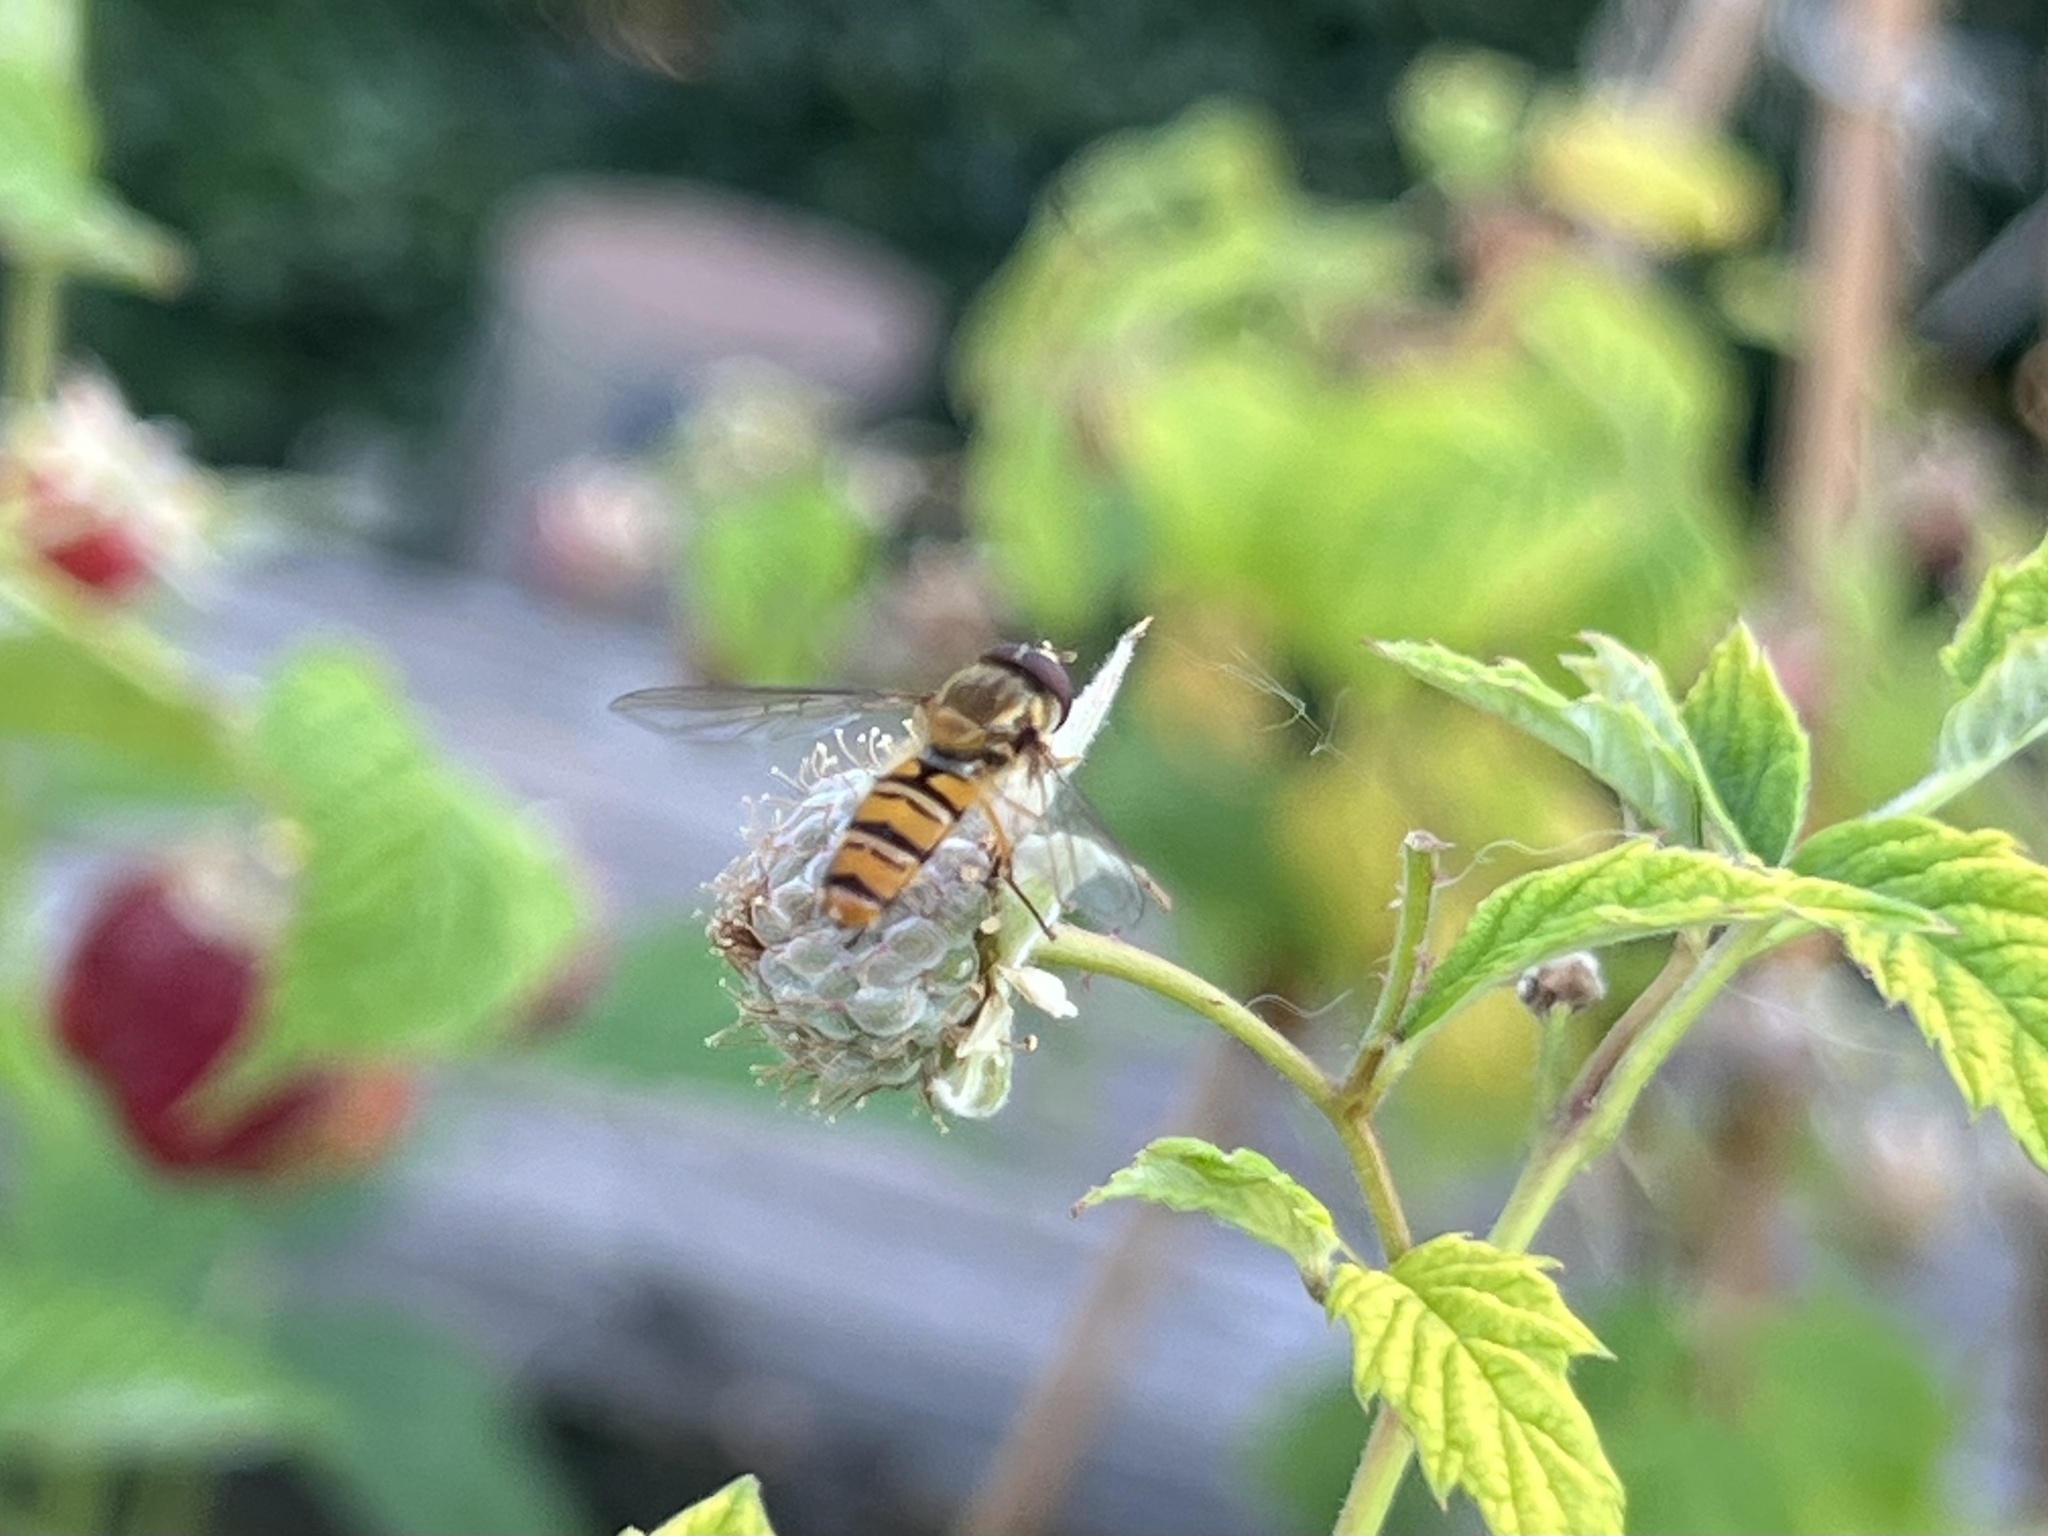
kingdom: Animalia
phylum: Arthropoda
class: Insecta
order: Diptera
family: Syrphidae
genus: Episyrphus
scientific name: Episyrphus balteatus
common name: Marmalade hoverfly
